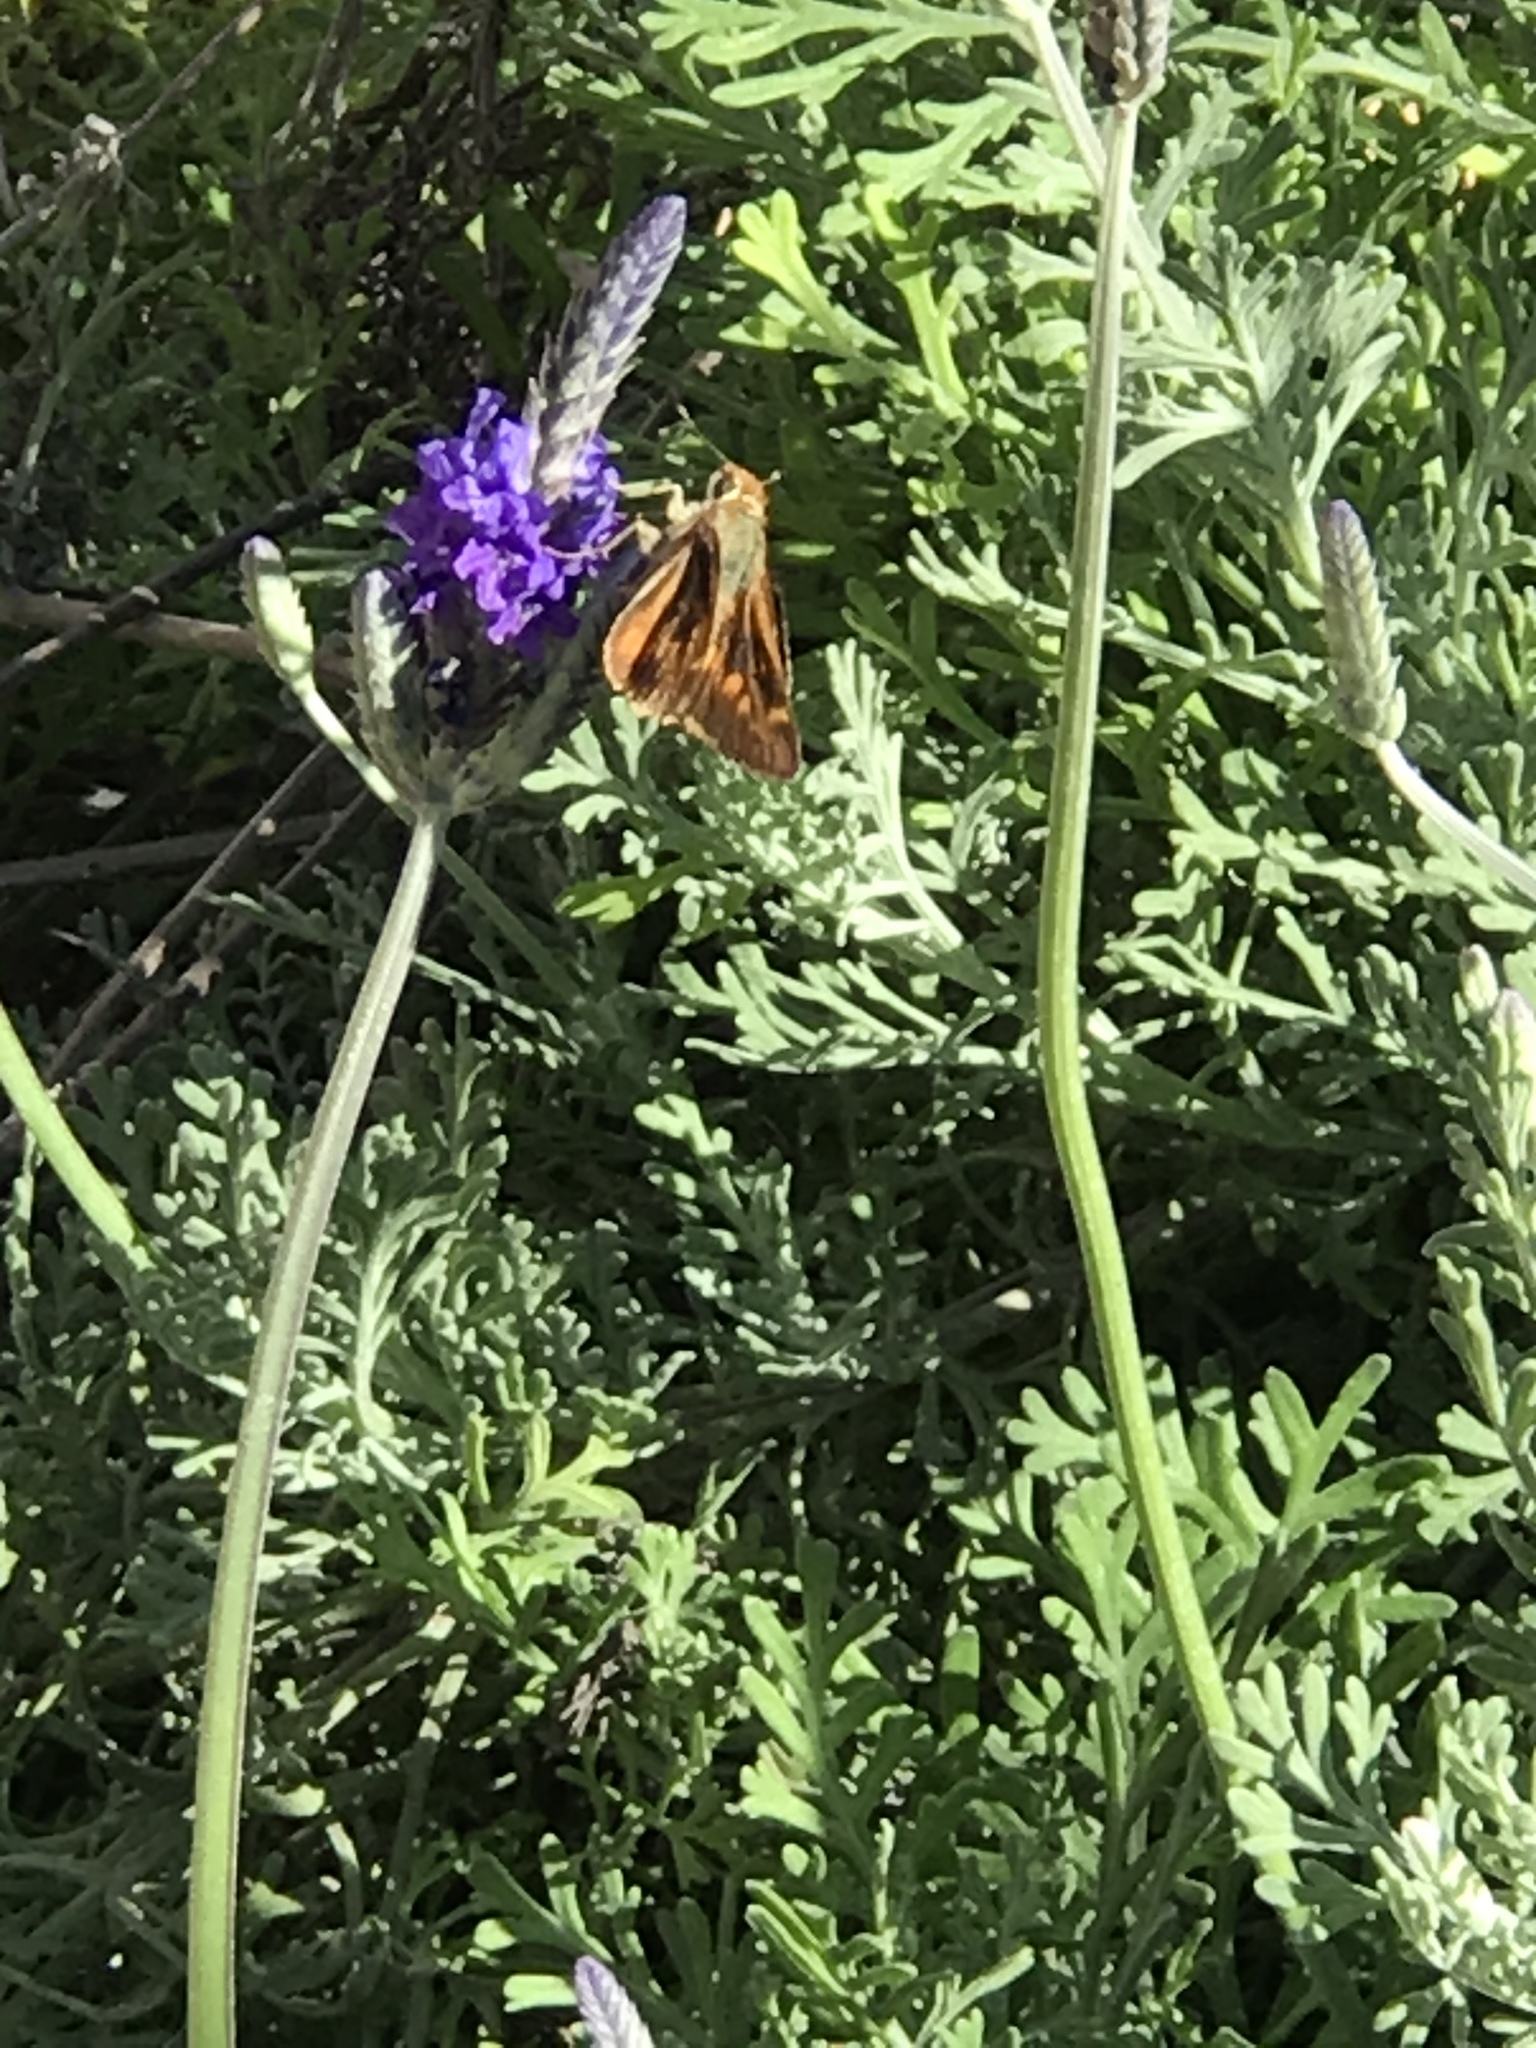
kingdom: Animalia
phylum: Arthropoda
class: Insecta
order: Lepidoptera
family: Hesperiidae
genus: Lon
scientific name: Lon melane
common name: Umber skipper
